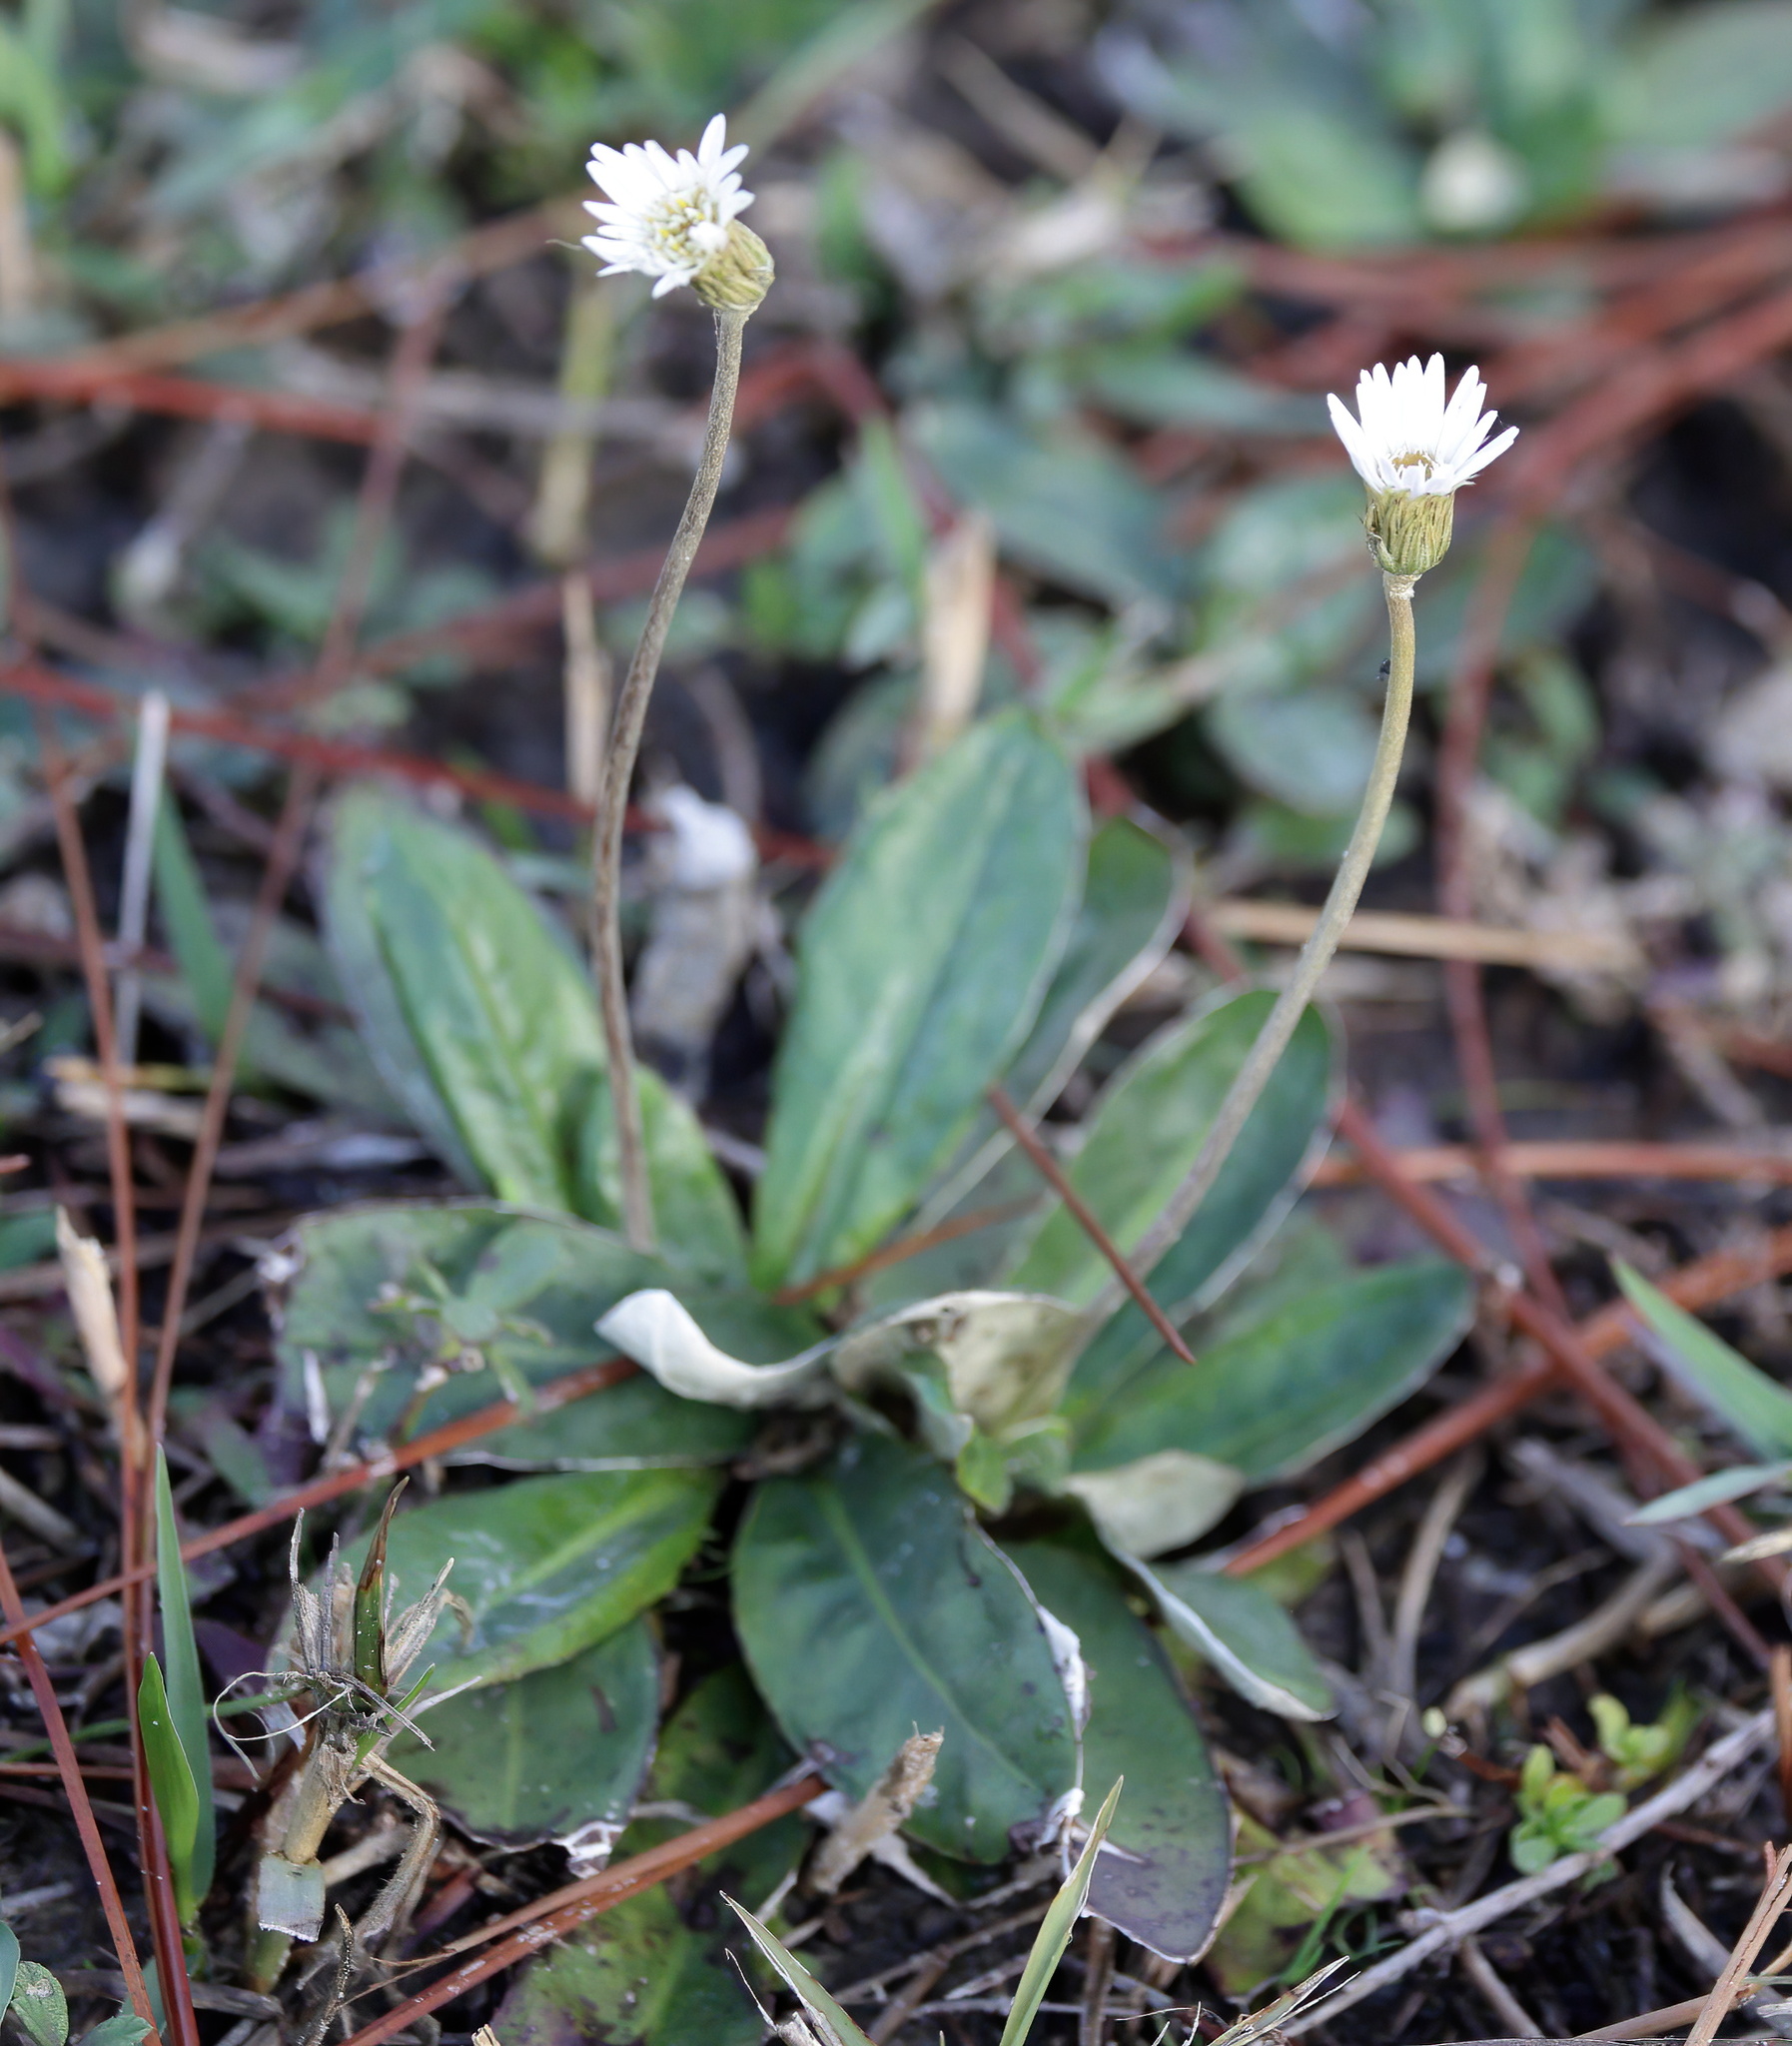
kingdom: Plantae
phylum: Tracheophyta
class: Magnoliopsida
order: Asterales
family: Asteraceae
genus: Chaptalia
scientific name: Chaptalia tomentosa
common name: Woolly sunbonnet
